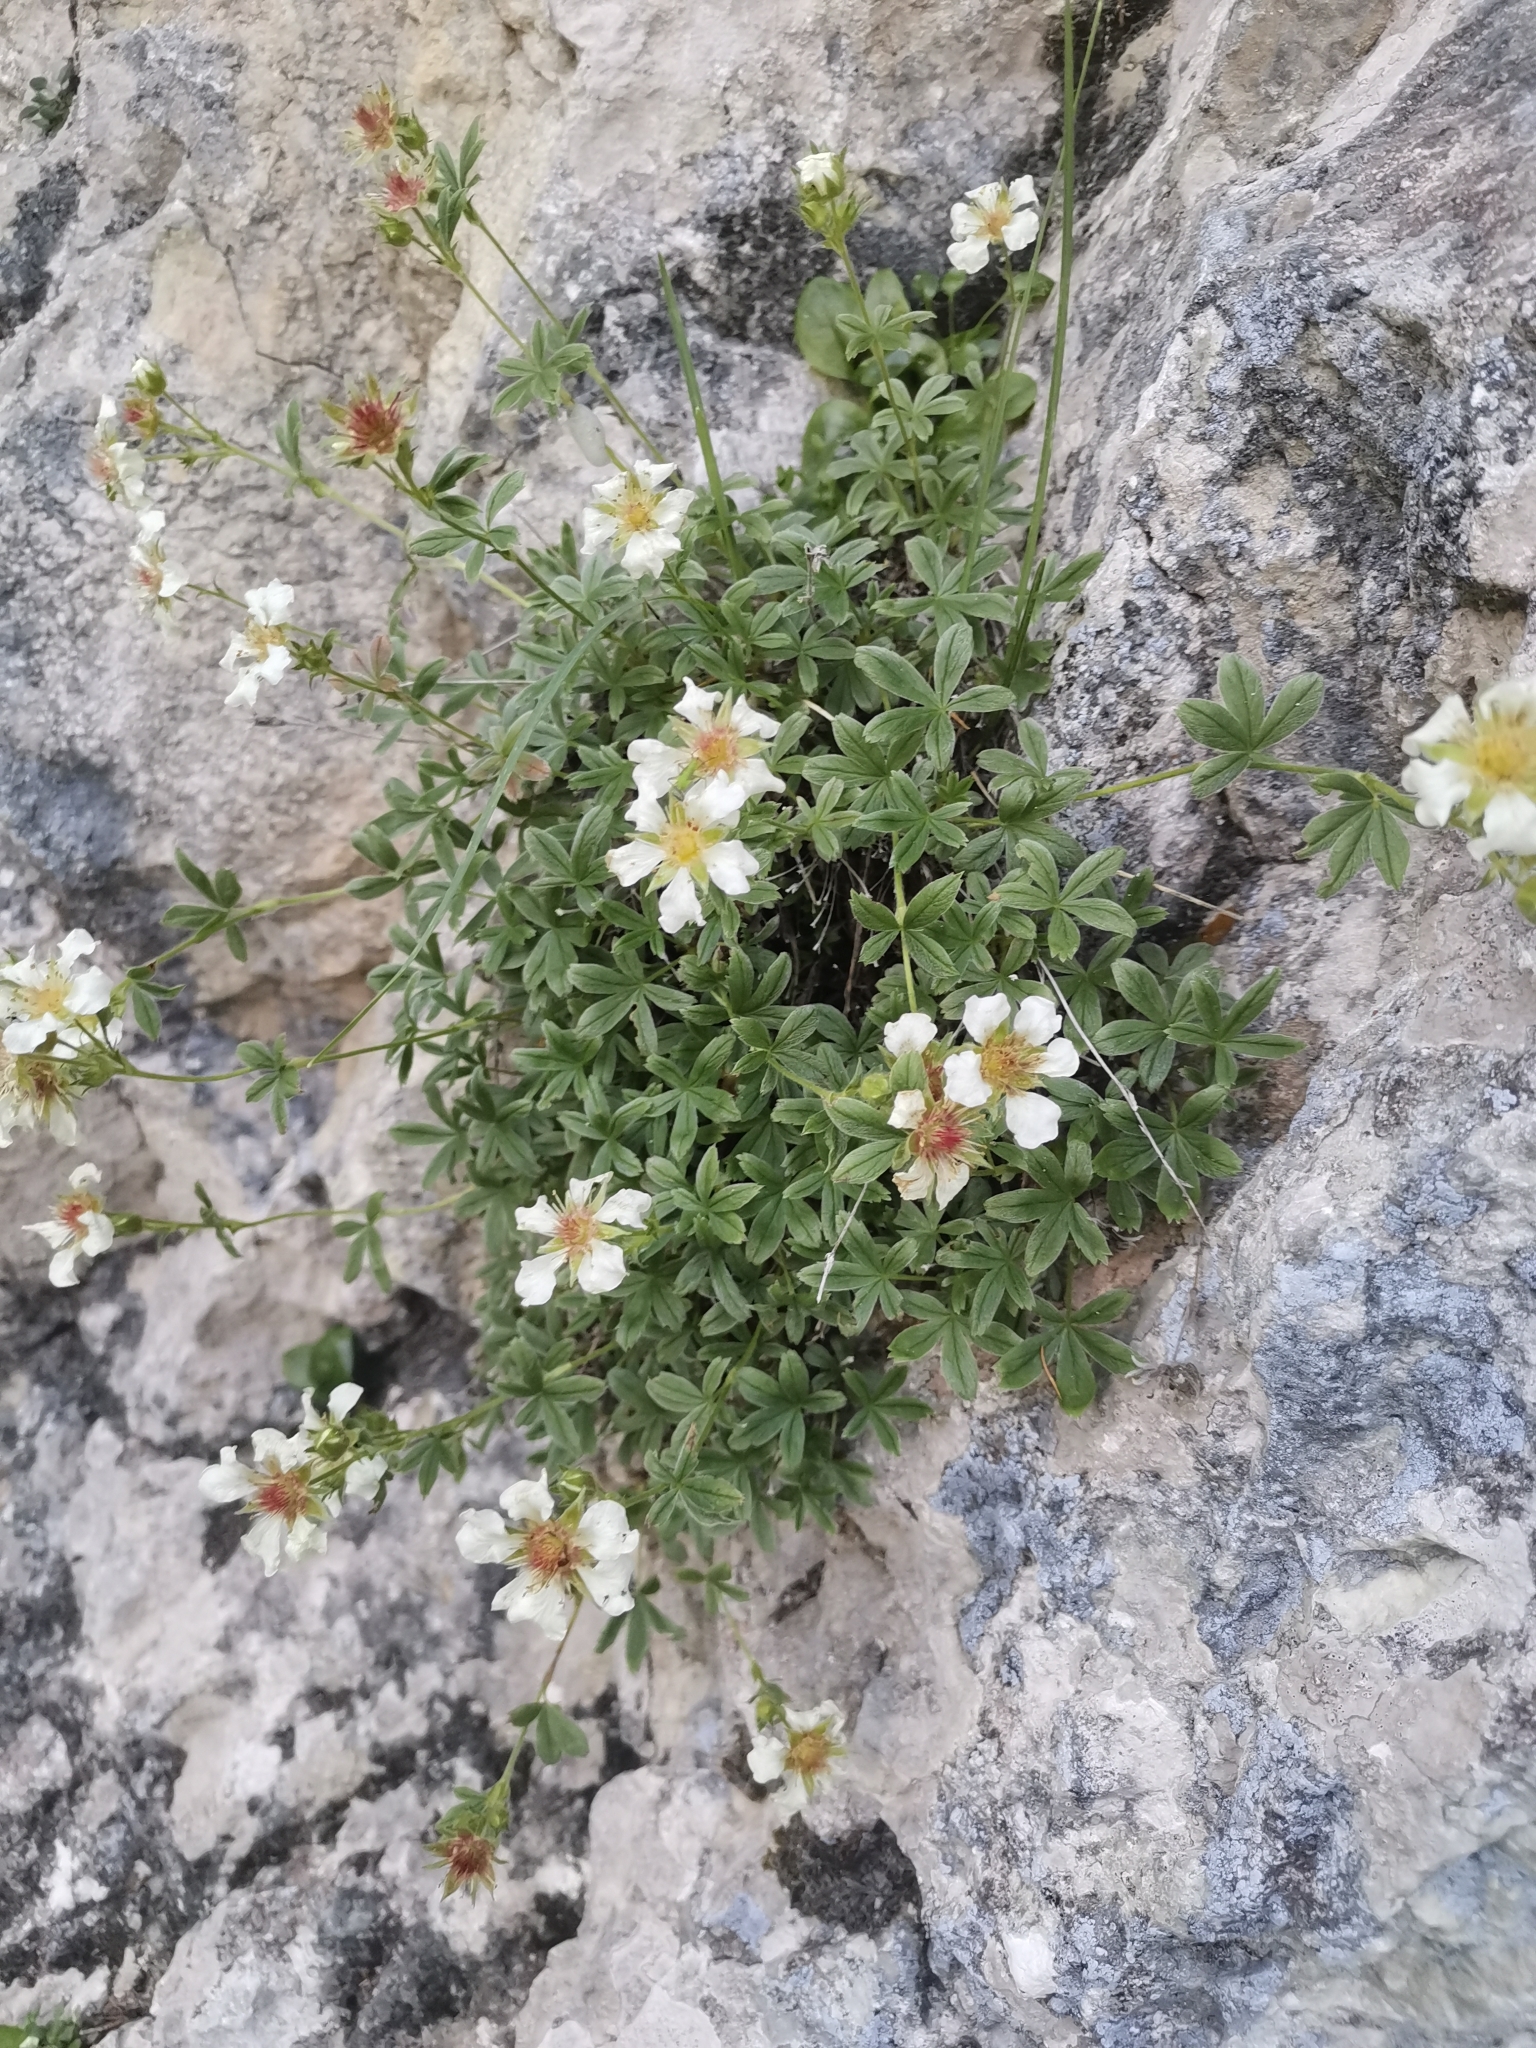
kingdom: Plantae
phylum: Tracheophyta
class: Magnoliopsida
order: Rosales
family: Rosaceae
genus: Potentilla
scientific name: Potentilla clusiana
